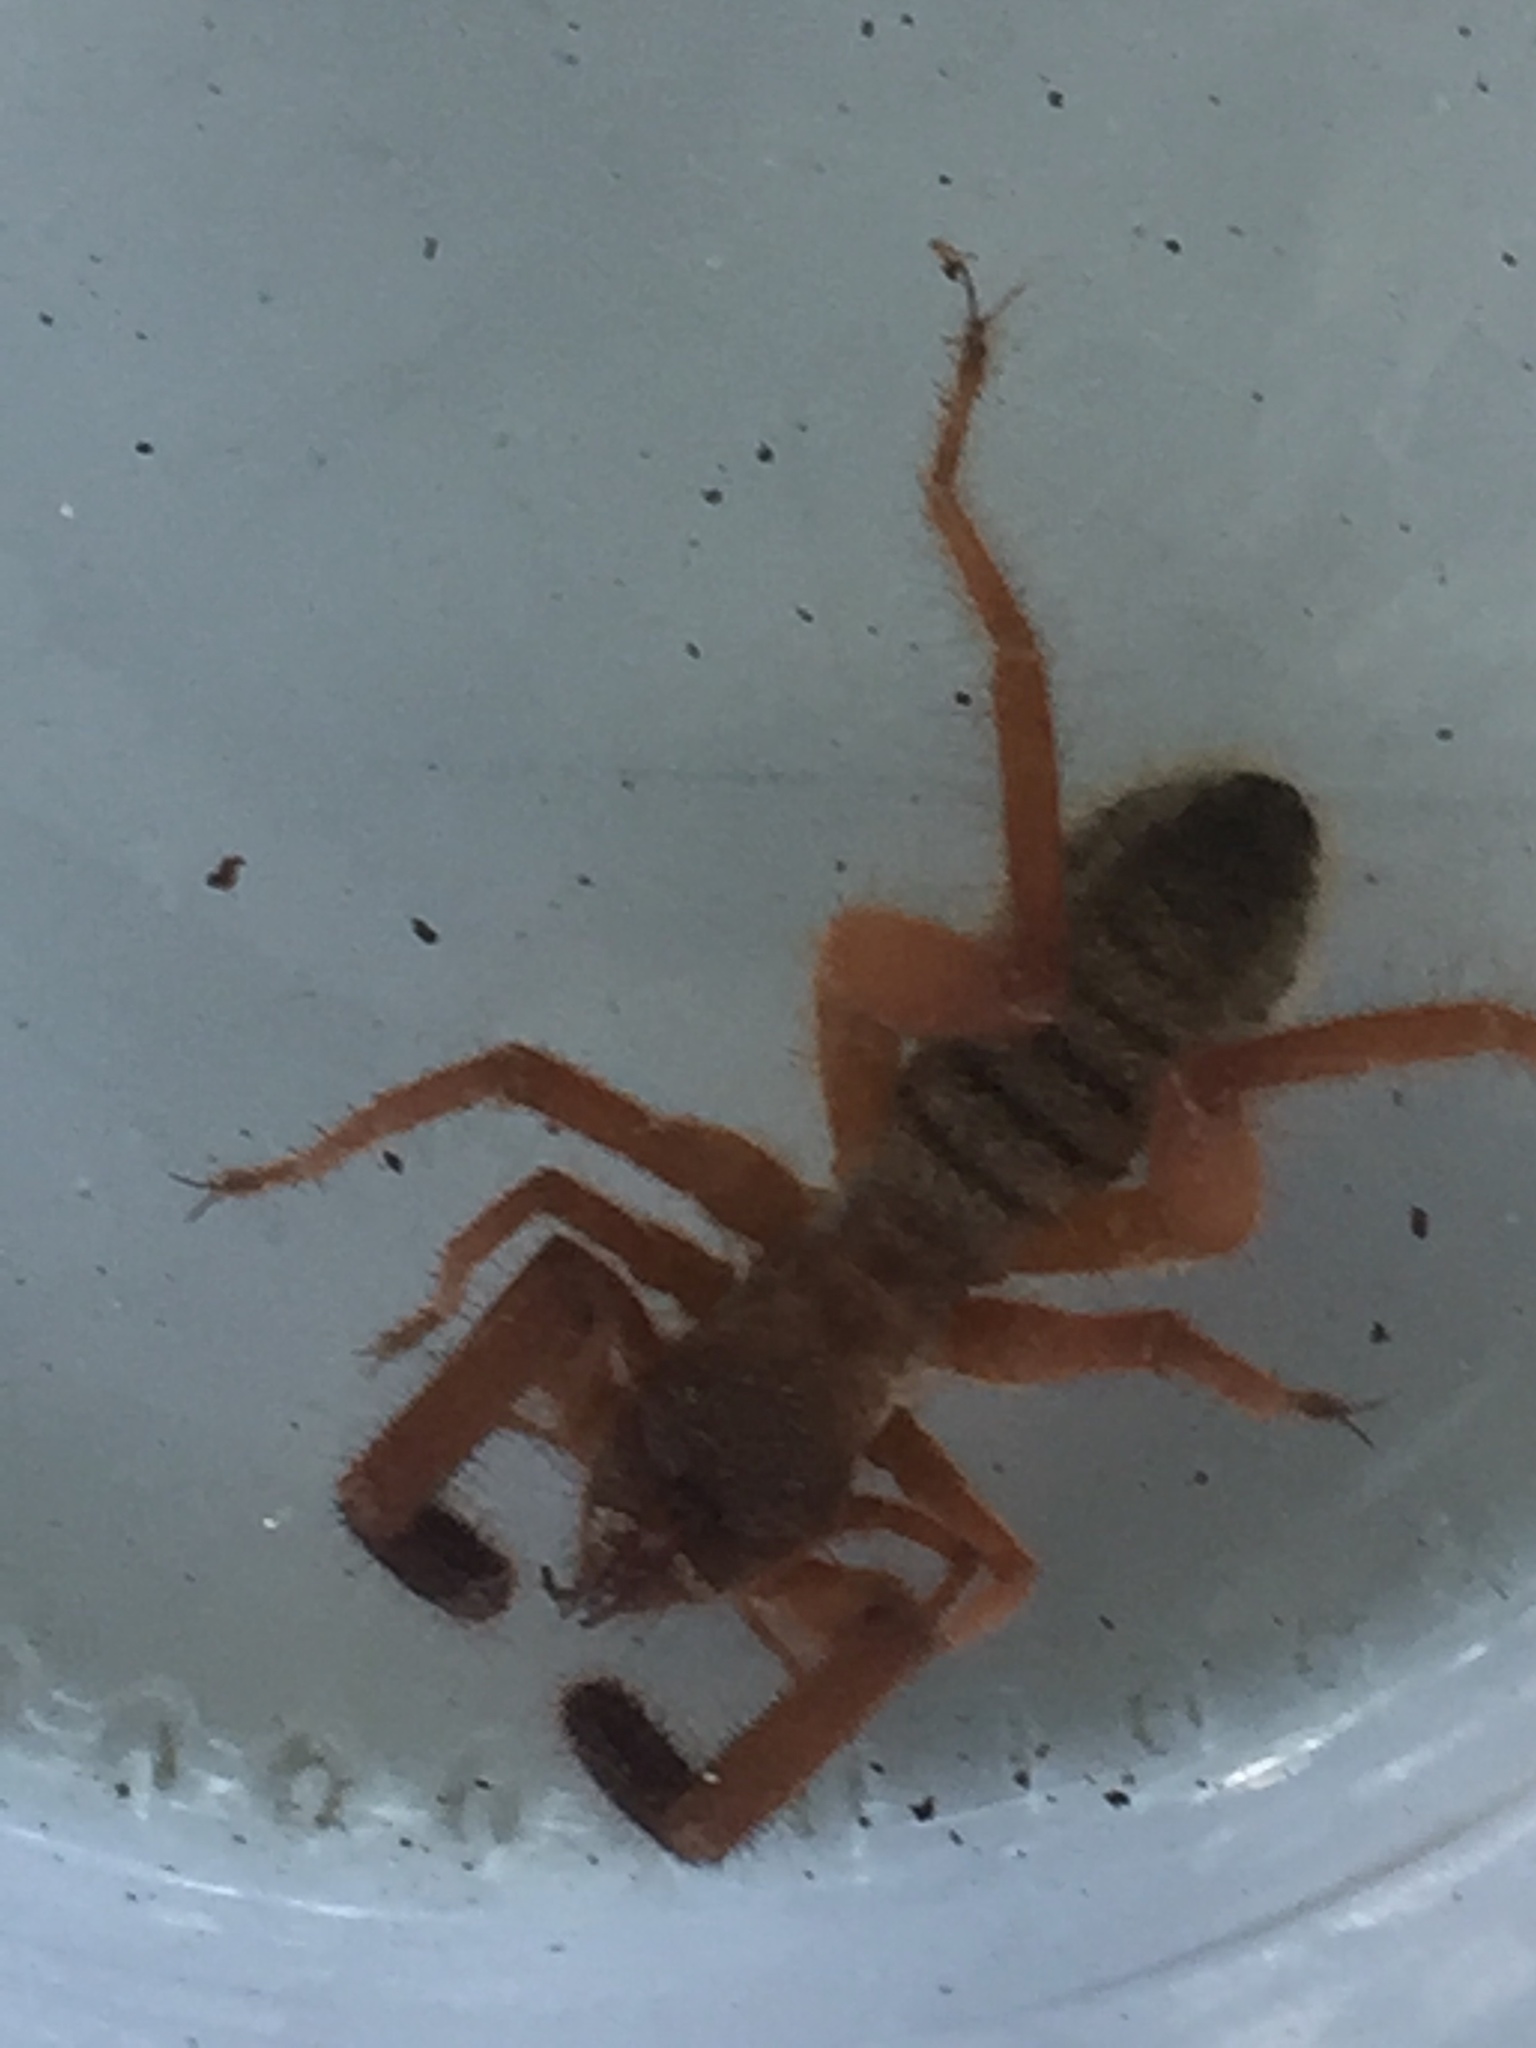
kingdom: Animalia
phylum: Arthropoda
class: Arachnida
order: Solifugae
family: Daesiidae
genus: Gluvia
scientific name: Gluvia dorsalis
